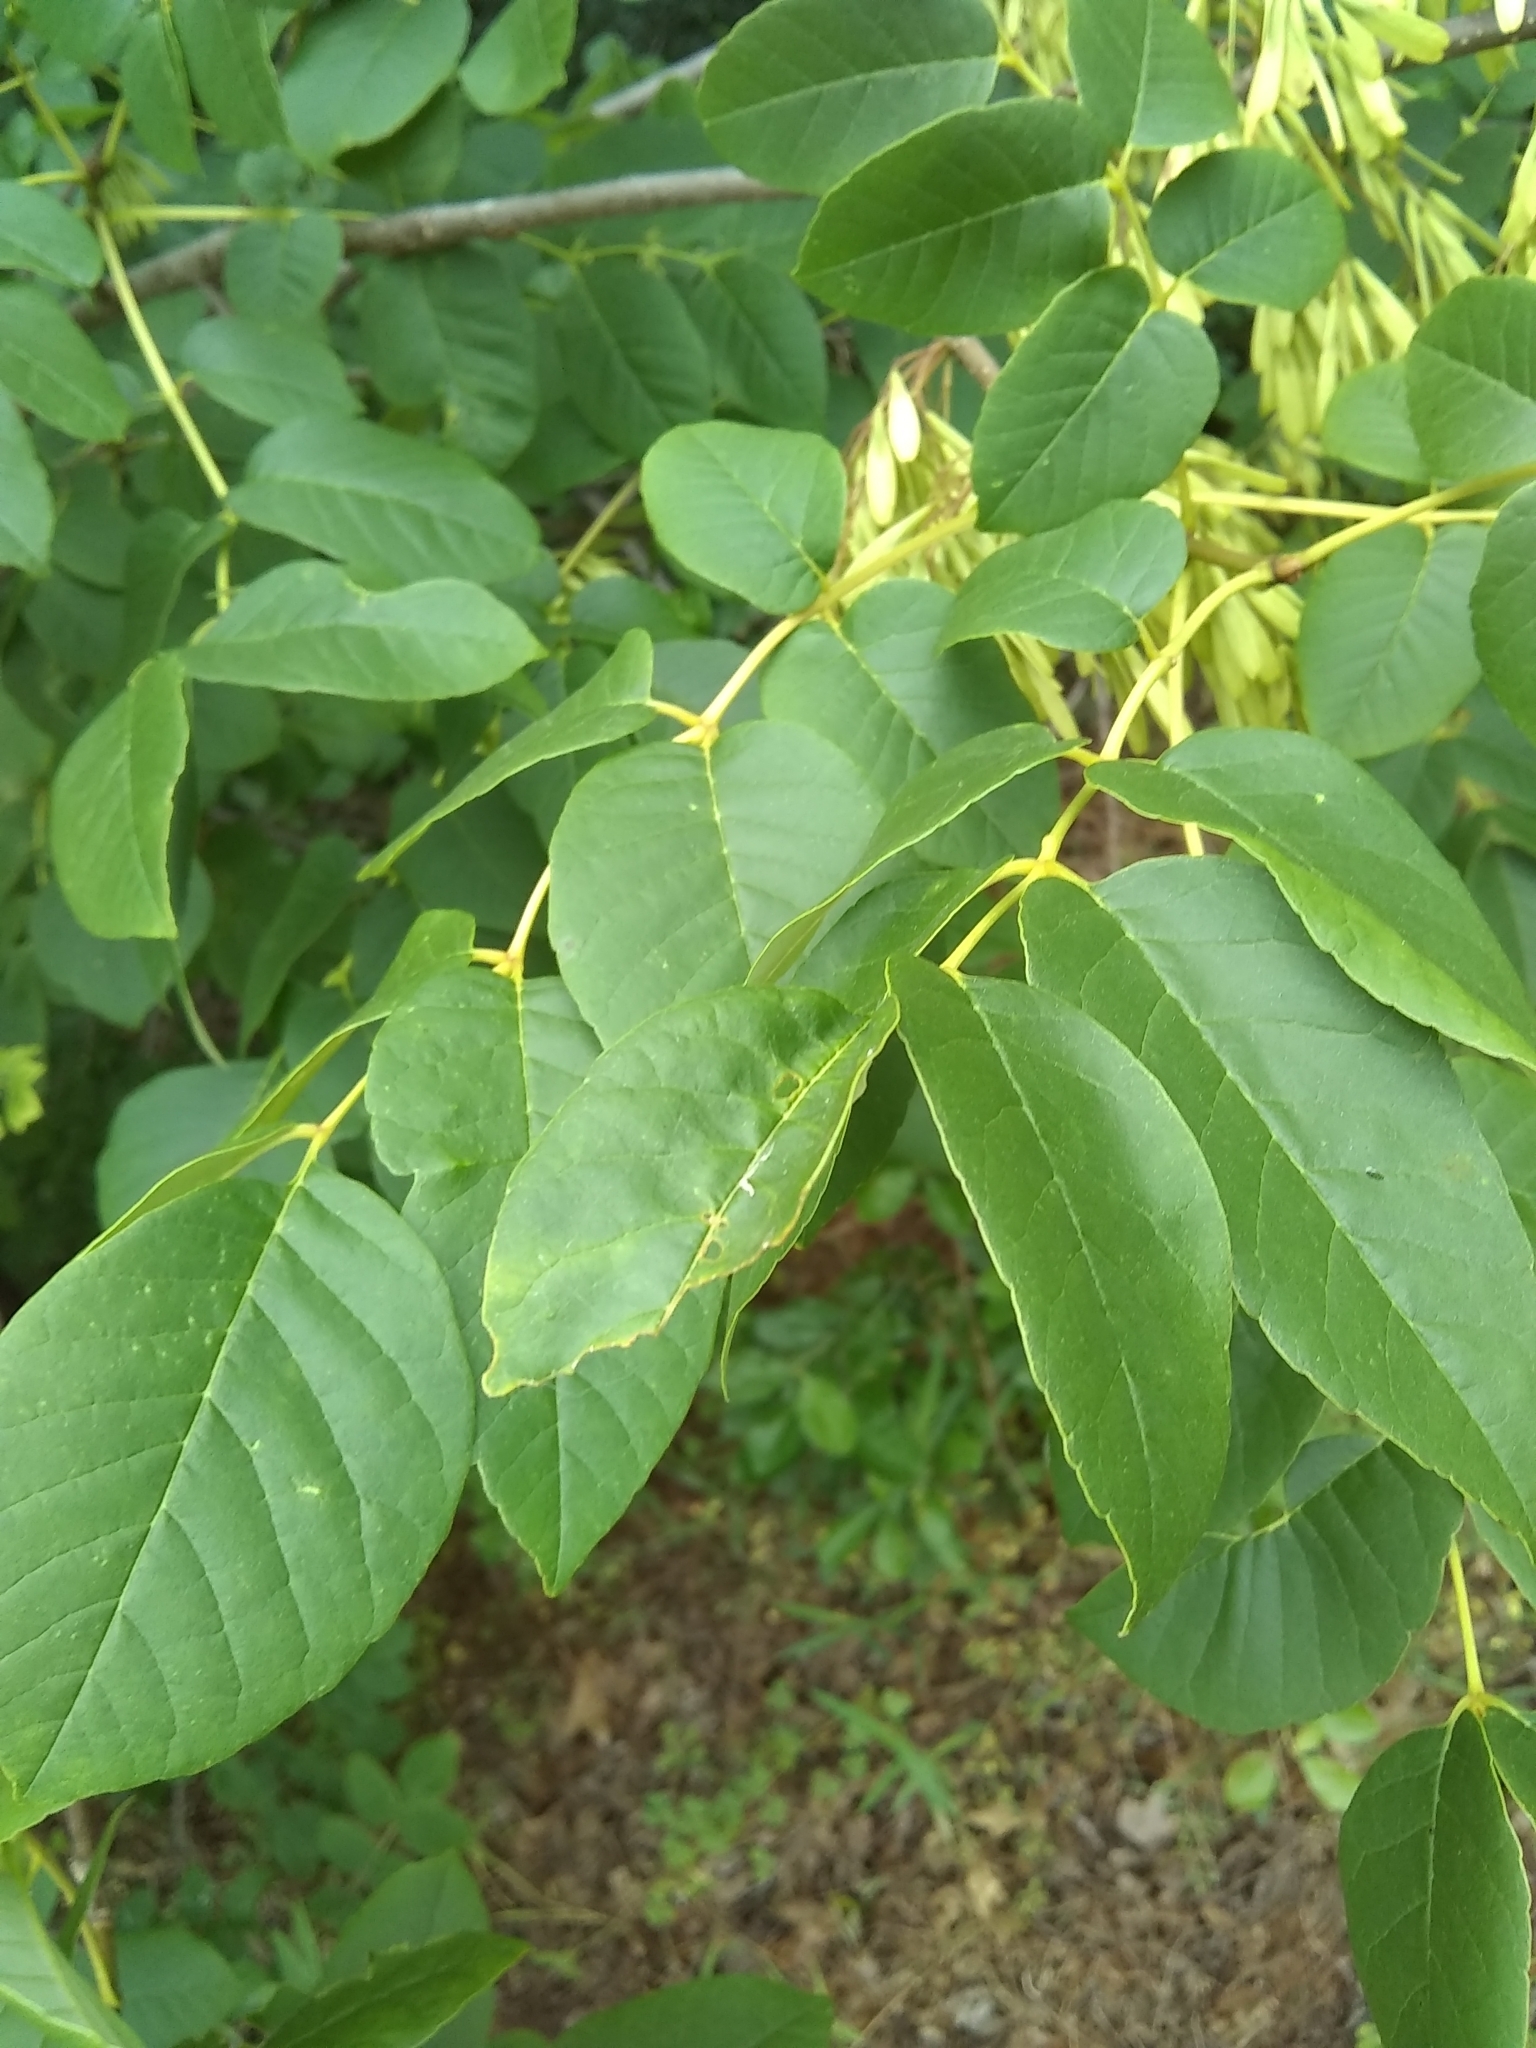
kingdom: Plantae
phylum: Tracheophyta
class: Magnoliopsida
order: Lamiales
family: Oleaceae
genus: Fraxinus
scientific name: Fraxinus albicans
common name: Texas ash
